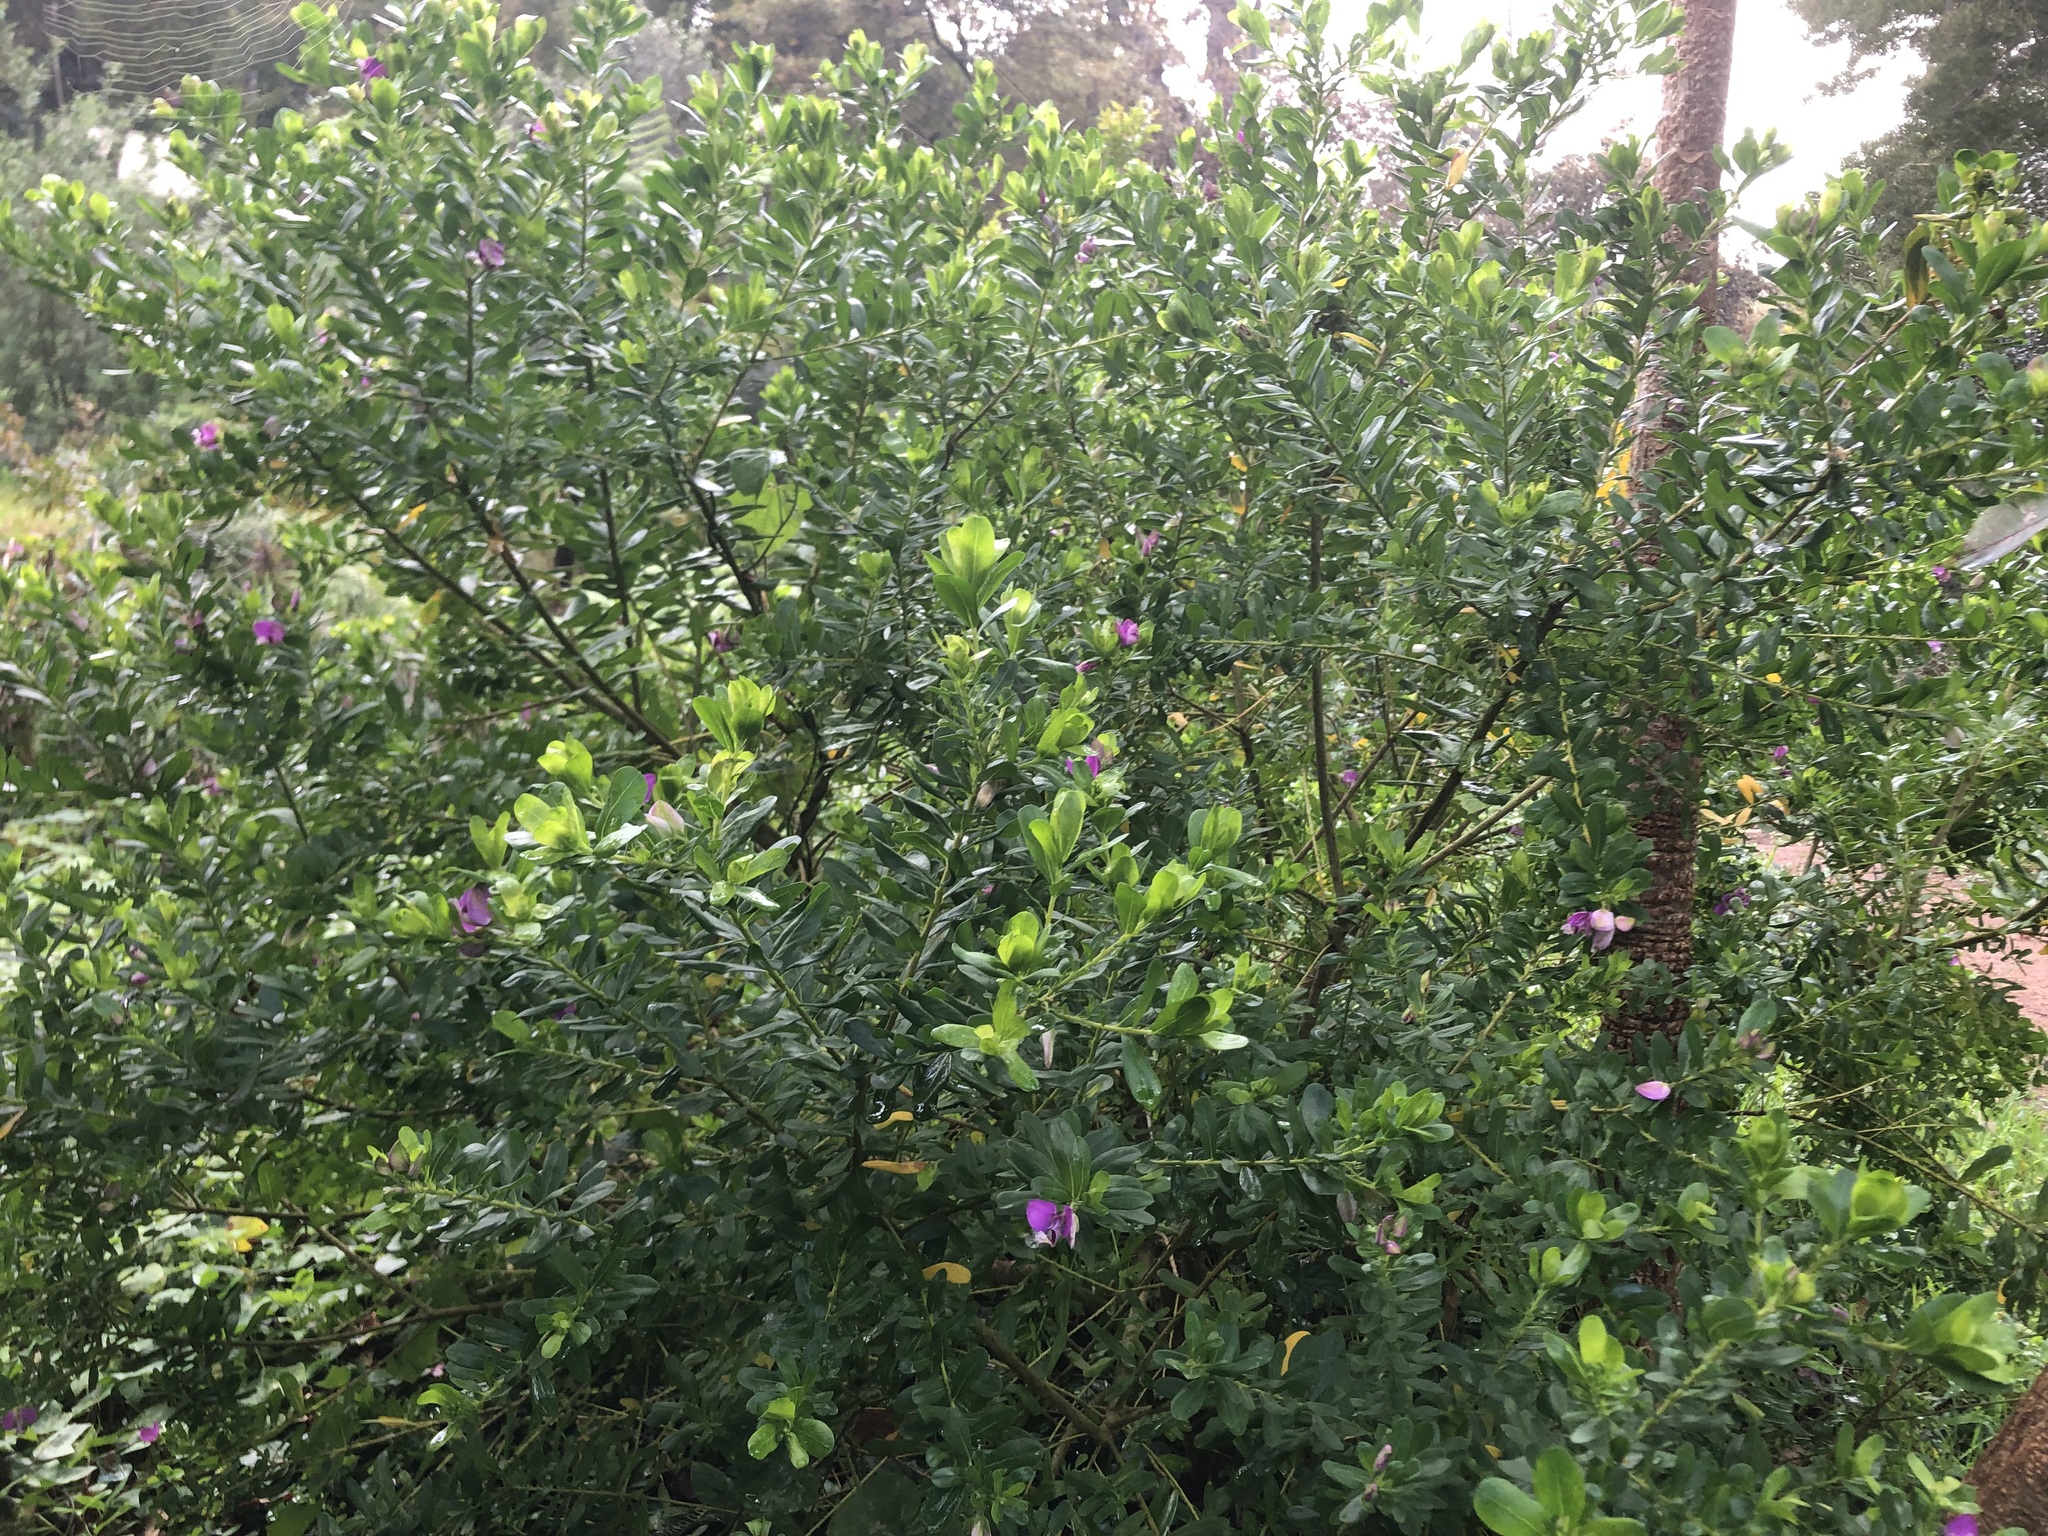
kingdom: Plantae
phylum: Tracheophyta
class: Magnoliopsida
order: Fabales
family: Polygalaceae
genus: Polygala
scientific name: Polygala myrtifolia
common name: Myrtle-leaf milkwort
